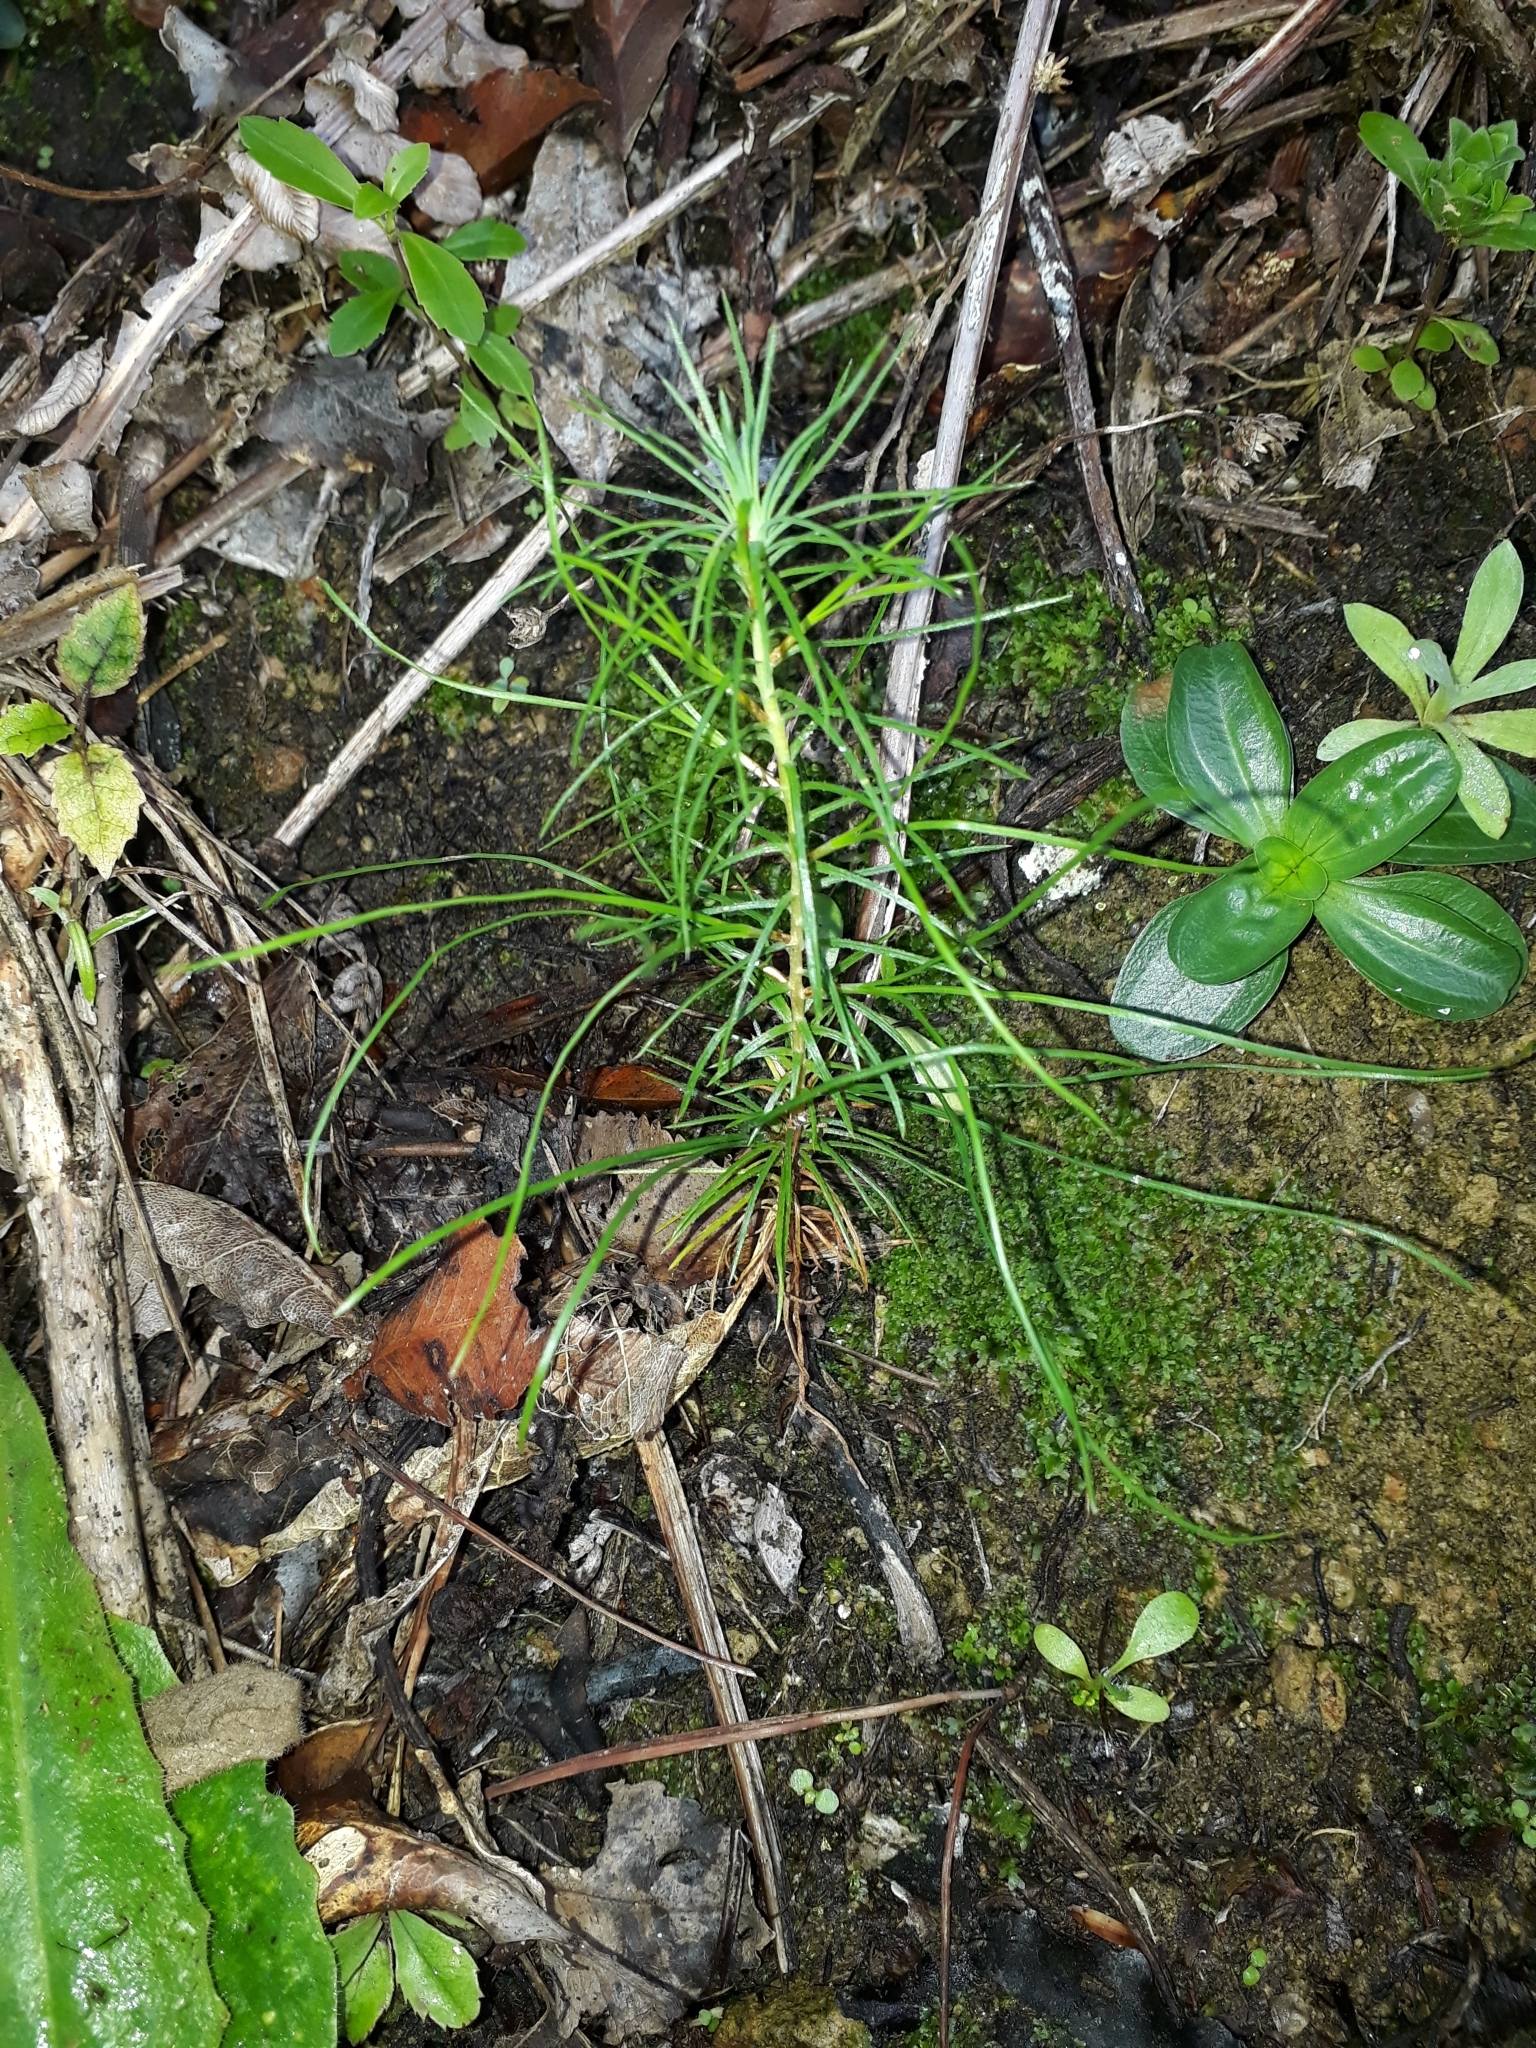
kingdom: Plantae
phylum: Tracheophyta
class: Pinopsida
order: Pinales
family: Pinaceae
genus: Pinus
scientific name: Pinus radiata
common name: Monterey pine
